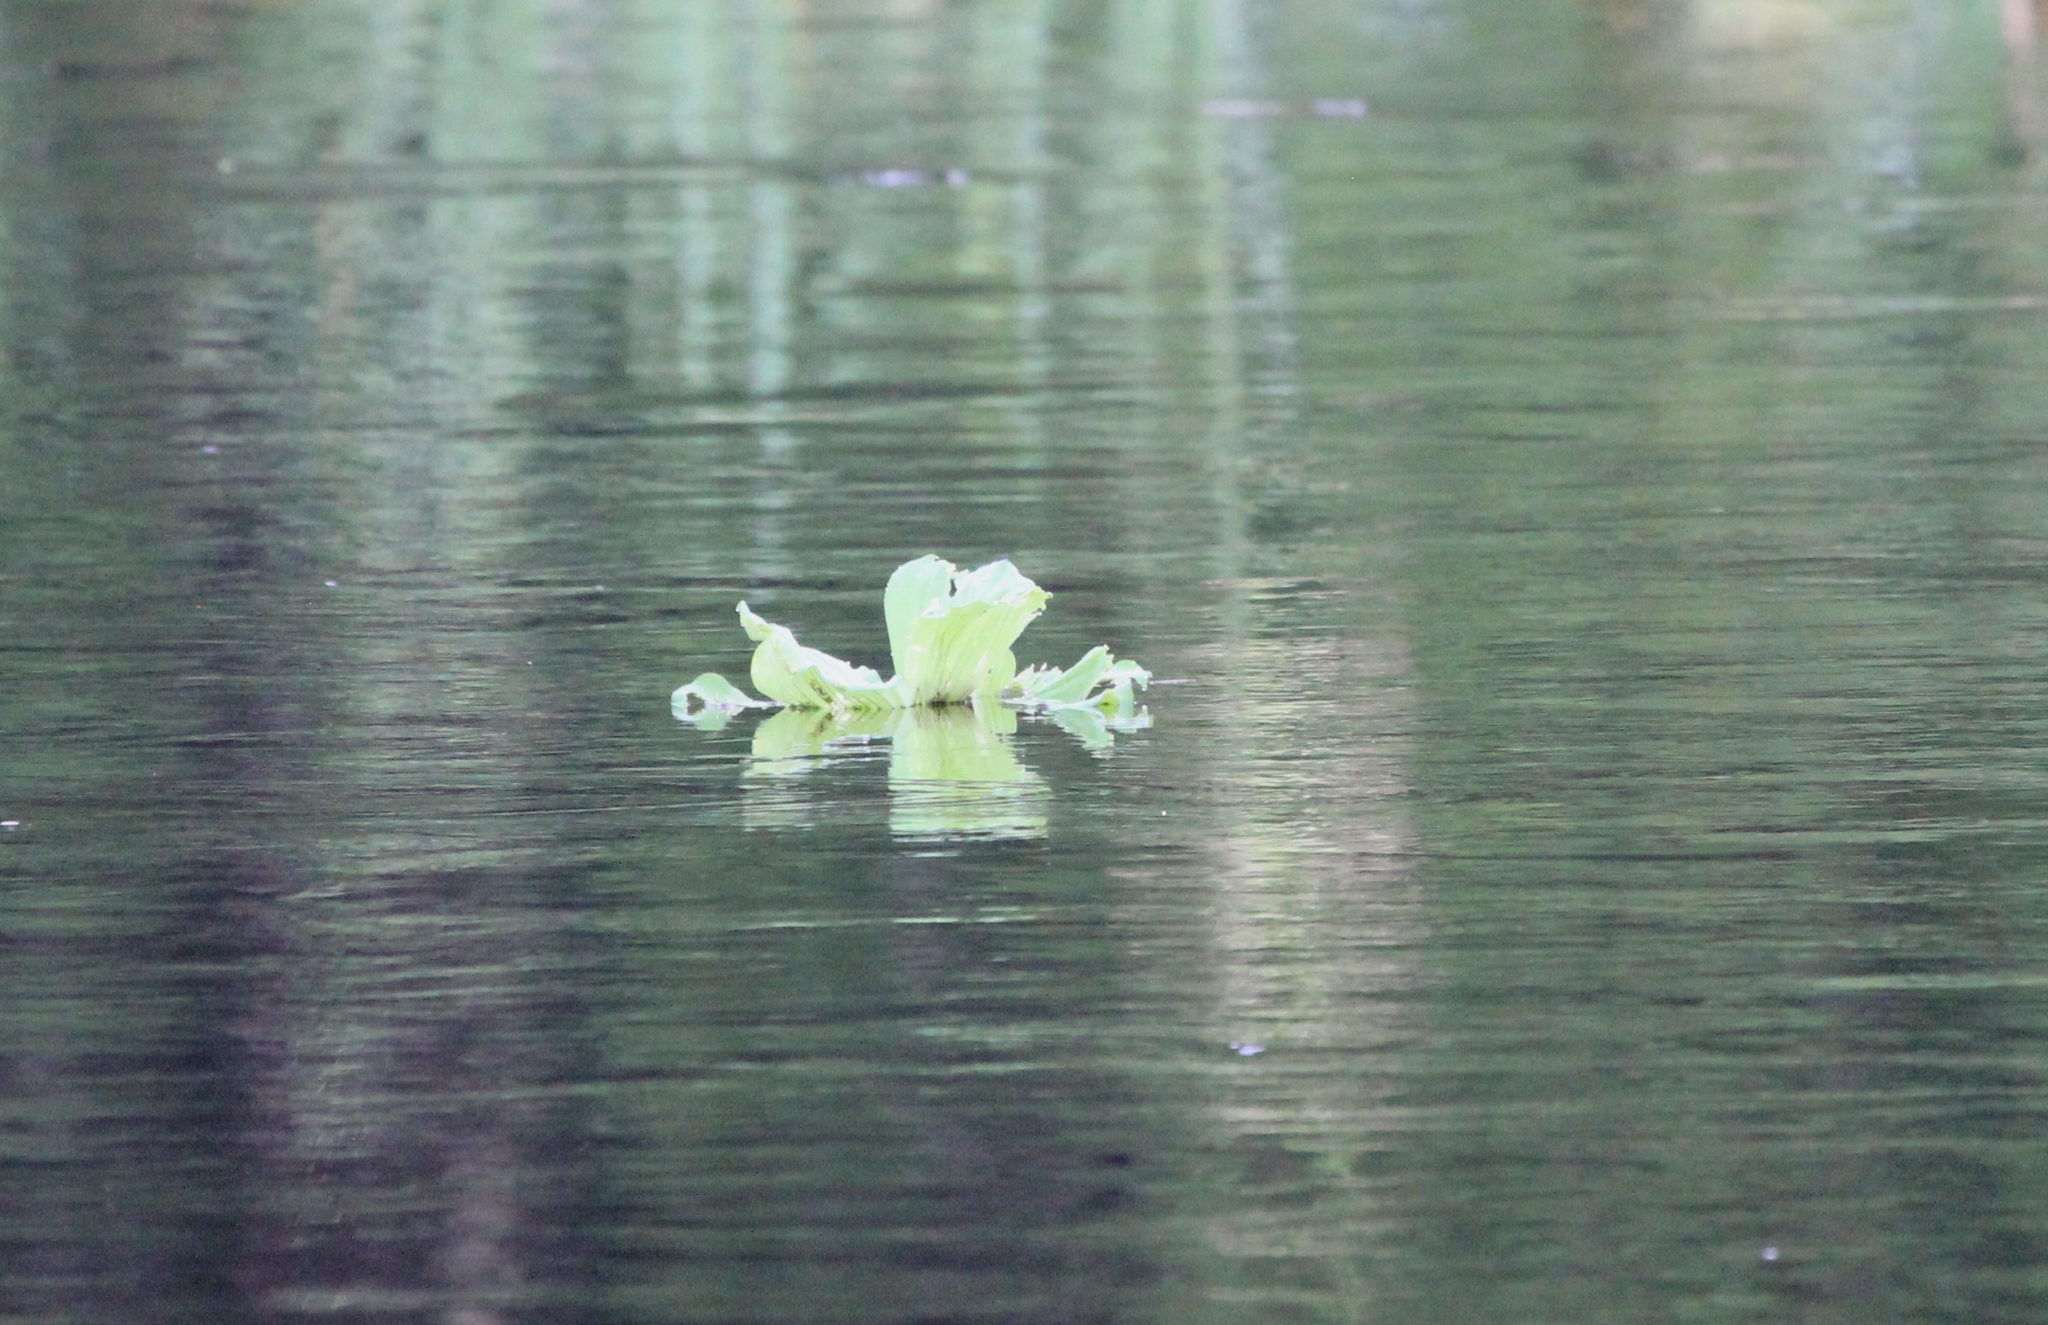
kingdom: Plantae
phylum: Tracheophyta
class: Liliopsida
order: Alismatales
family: Araceae
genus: Pistia
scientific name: Pistia stratiotes
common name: Water lettuce
